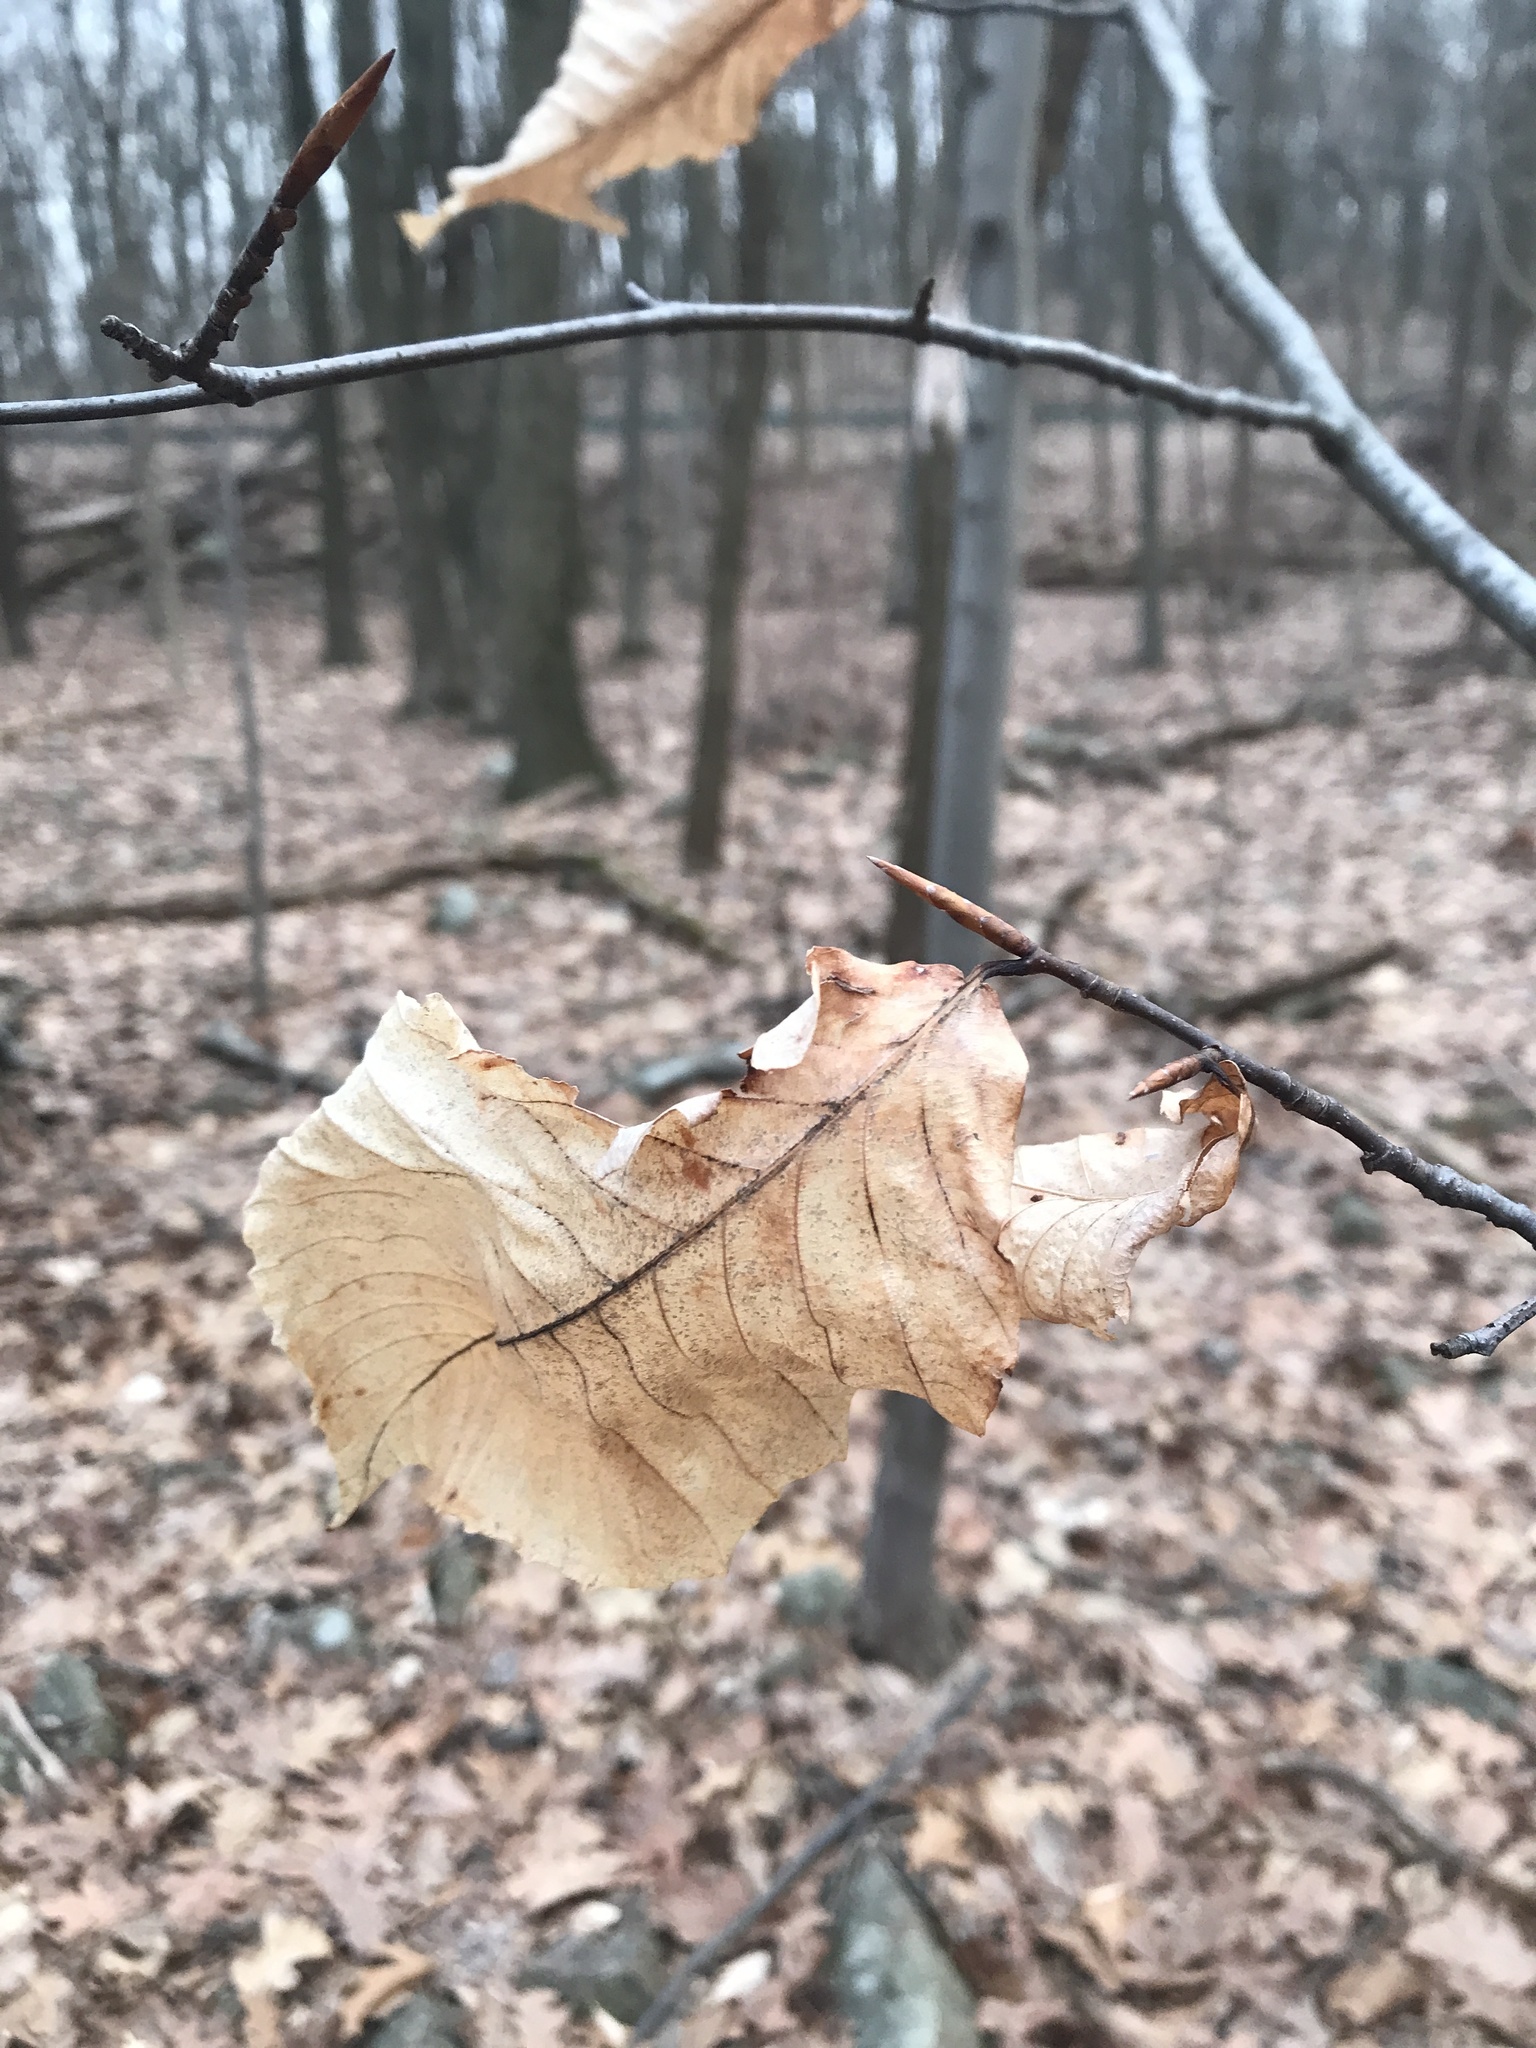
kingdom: Plantae
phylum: Tracheophyta
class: Magnoliopsida
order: Fagales
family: Fagaceae
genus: Fagus
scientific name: Fagus grandifolia
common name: American beech
